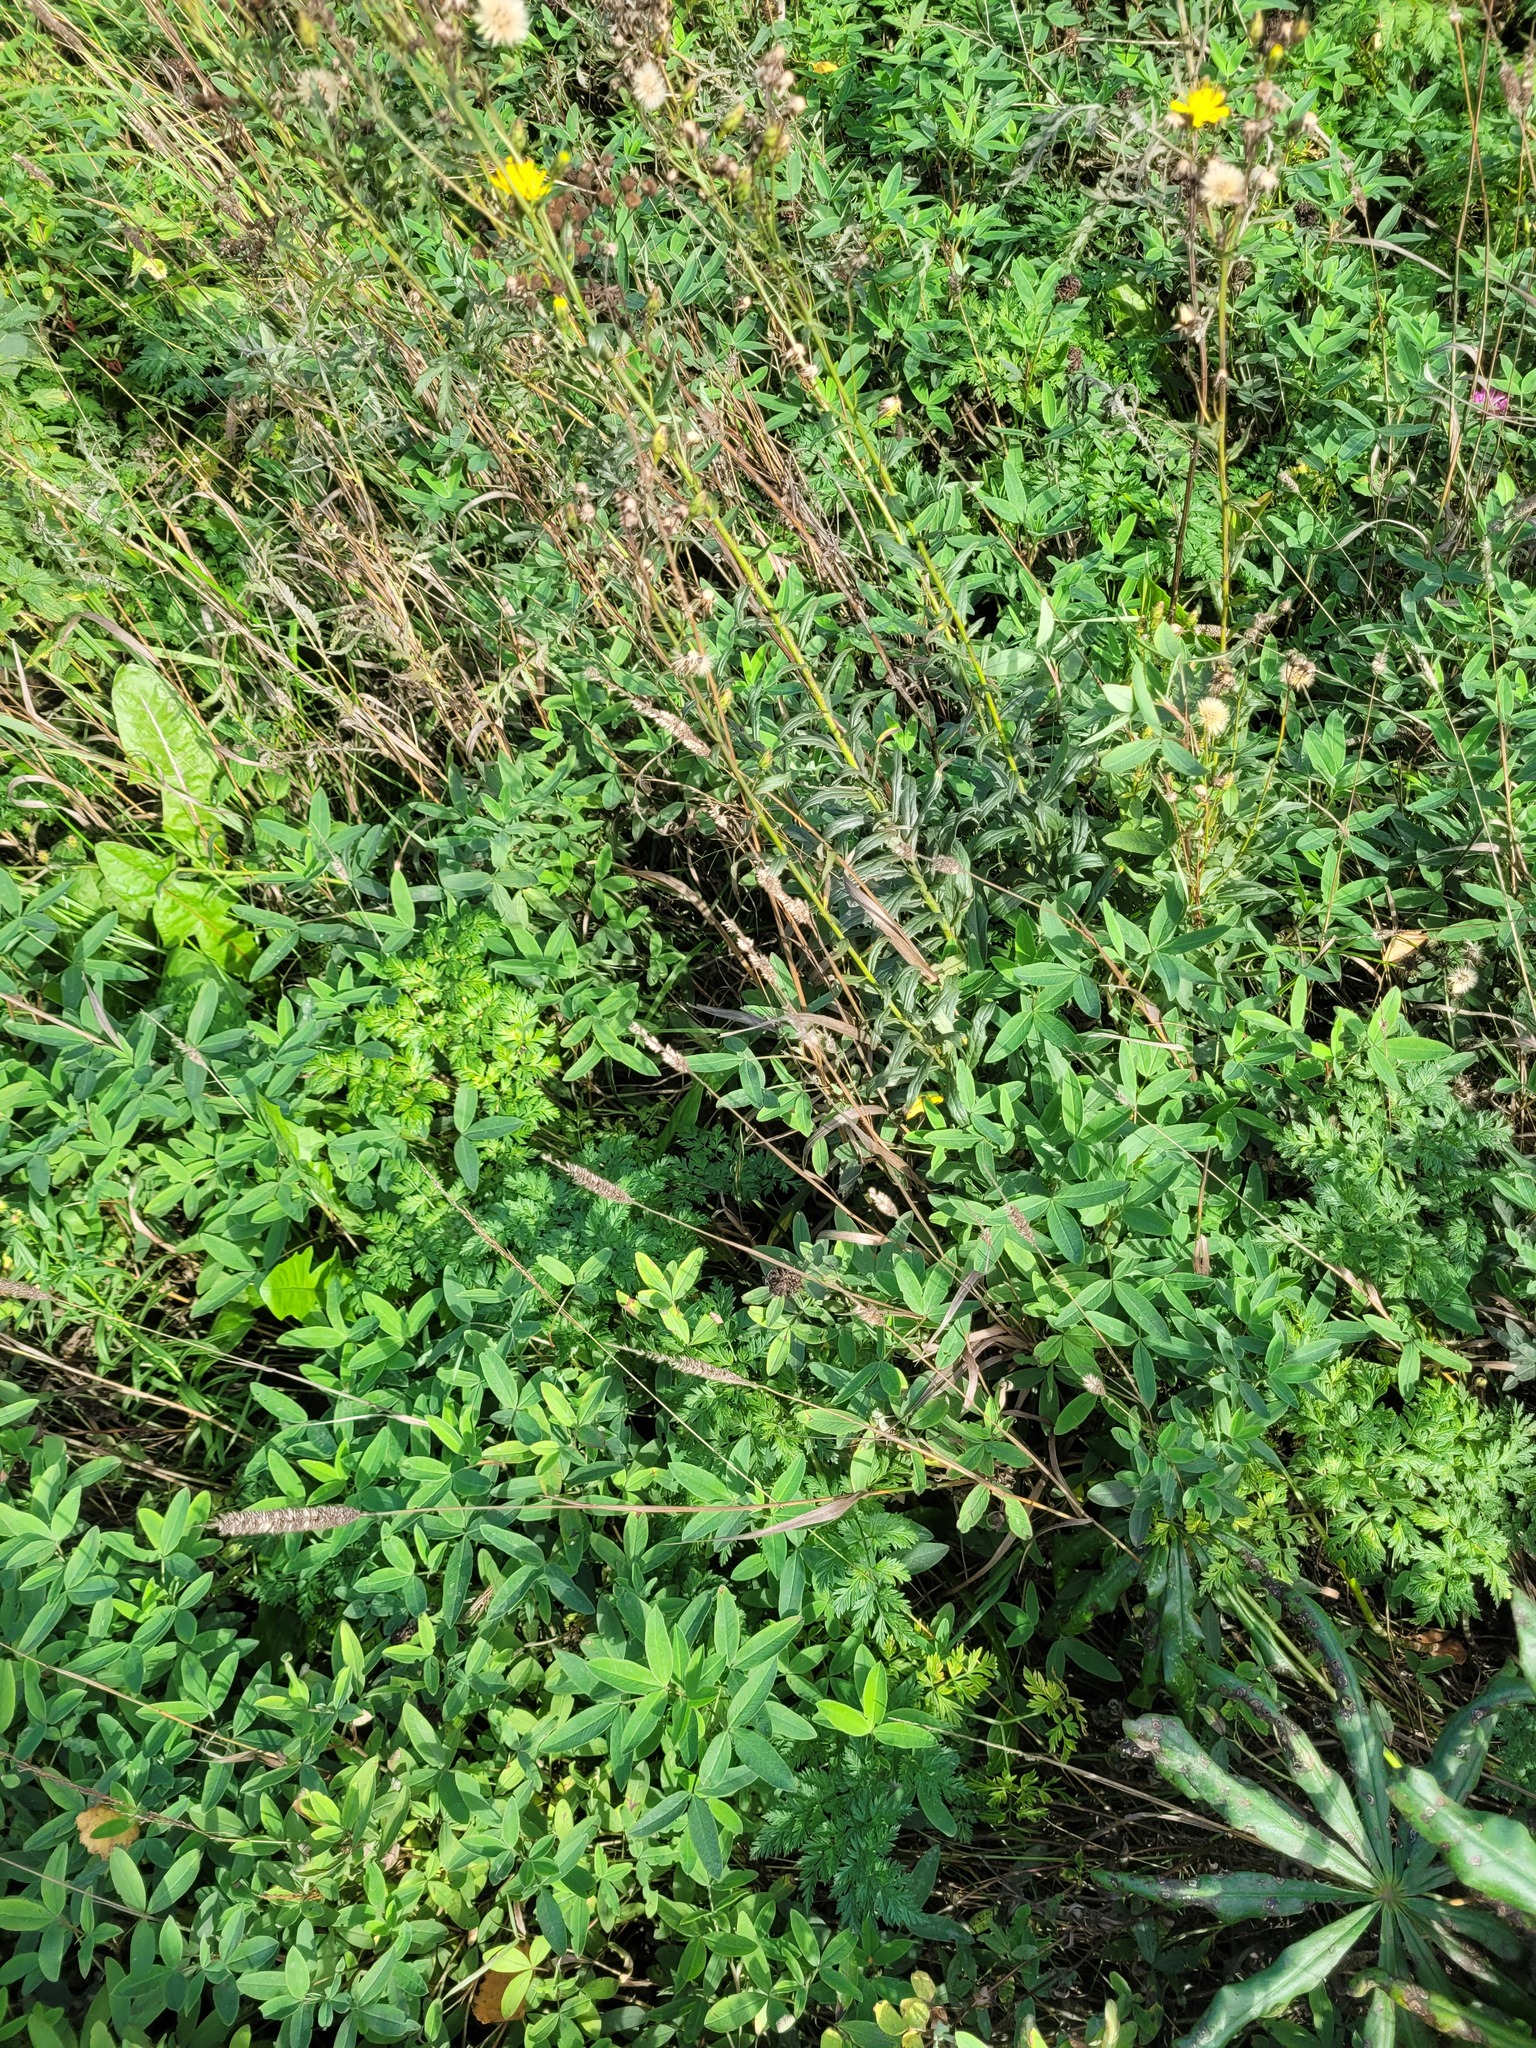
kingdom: Plantae
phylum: Tracheophyta
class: Liliopsida
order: Poales
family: Poaceae
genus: Phleum
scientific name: Phleum pratense
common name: Timothy grass
